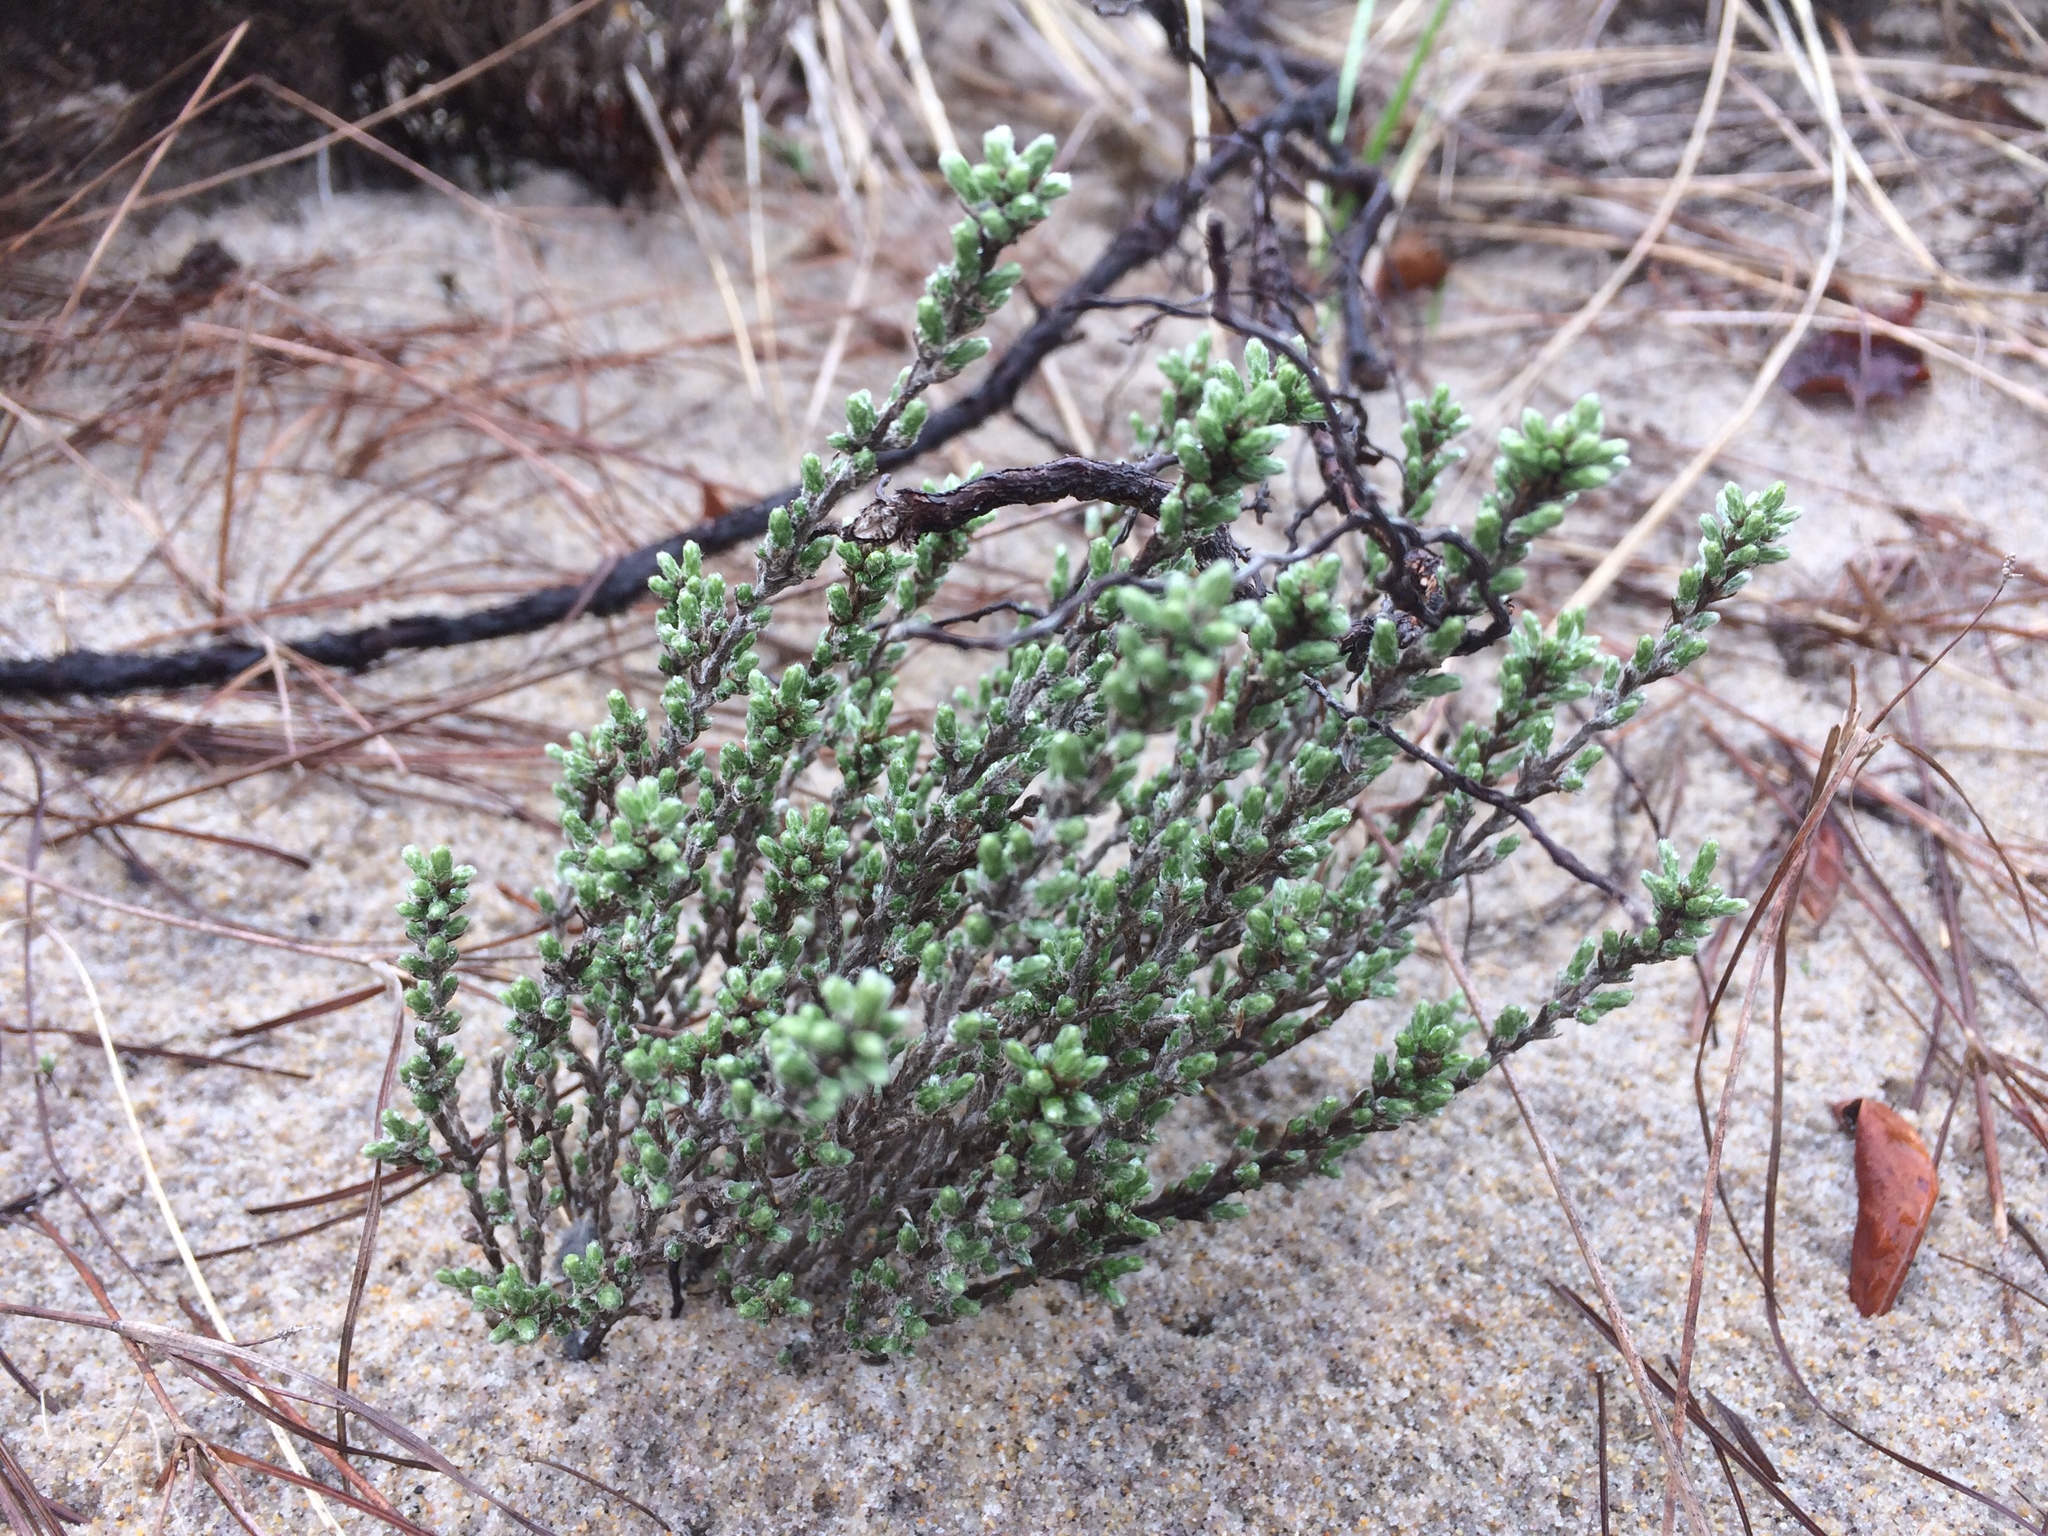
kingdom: Plantae
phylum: Tracheophyta
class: Magnoliopsida
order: Malvales
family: Cistaceae
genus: Hudsonia
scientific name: Hudsonia tomentosa
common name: Beach-heath
